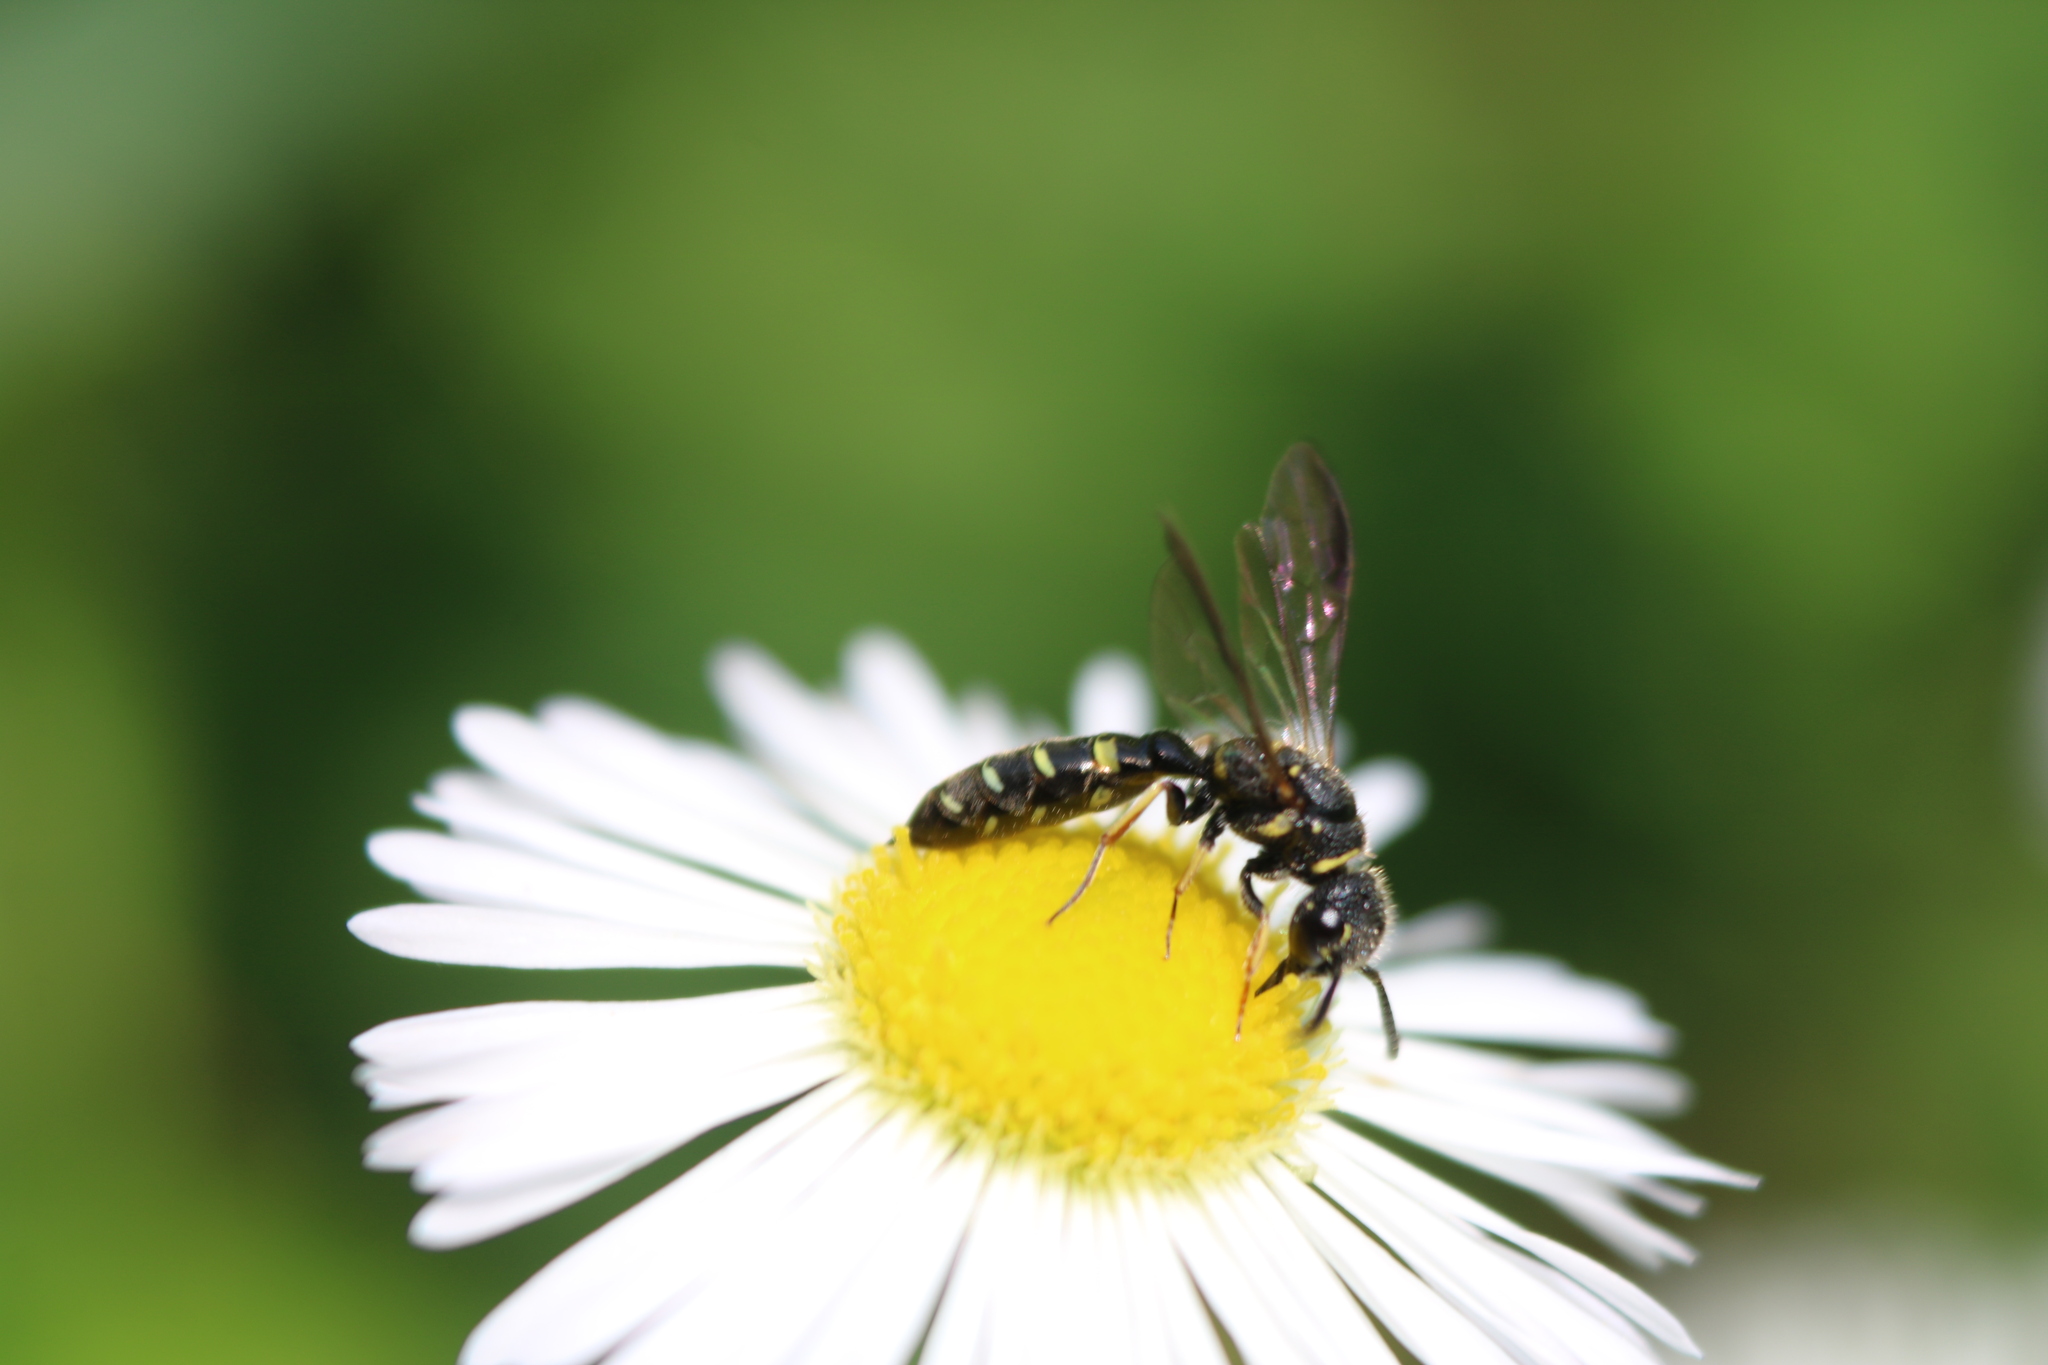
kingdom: Animalia
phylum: Arthropoda
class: Insecta
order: Hymenoptera
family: Sapygidae
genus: Sapyga
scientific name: Sapyga louisi
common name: Louis's club-horned cuckoo wasp
